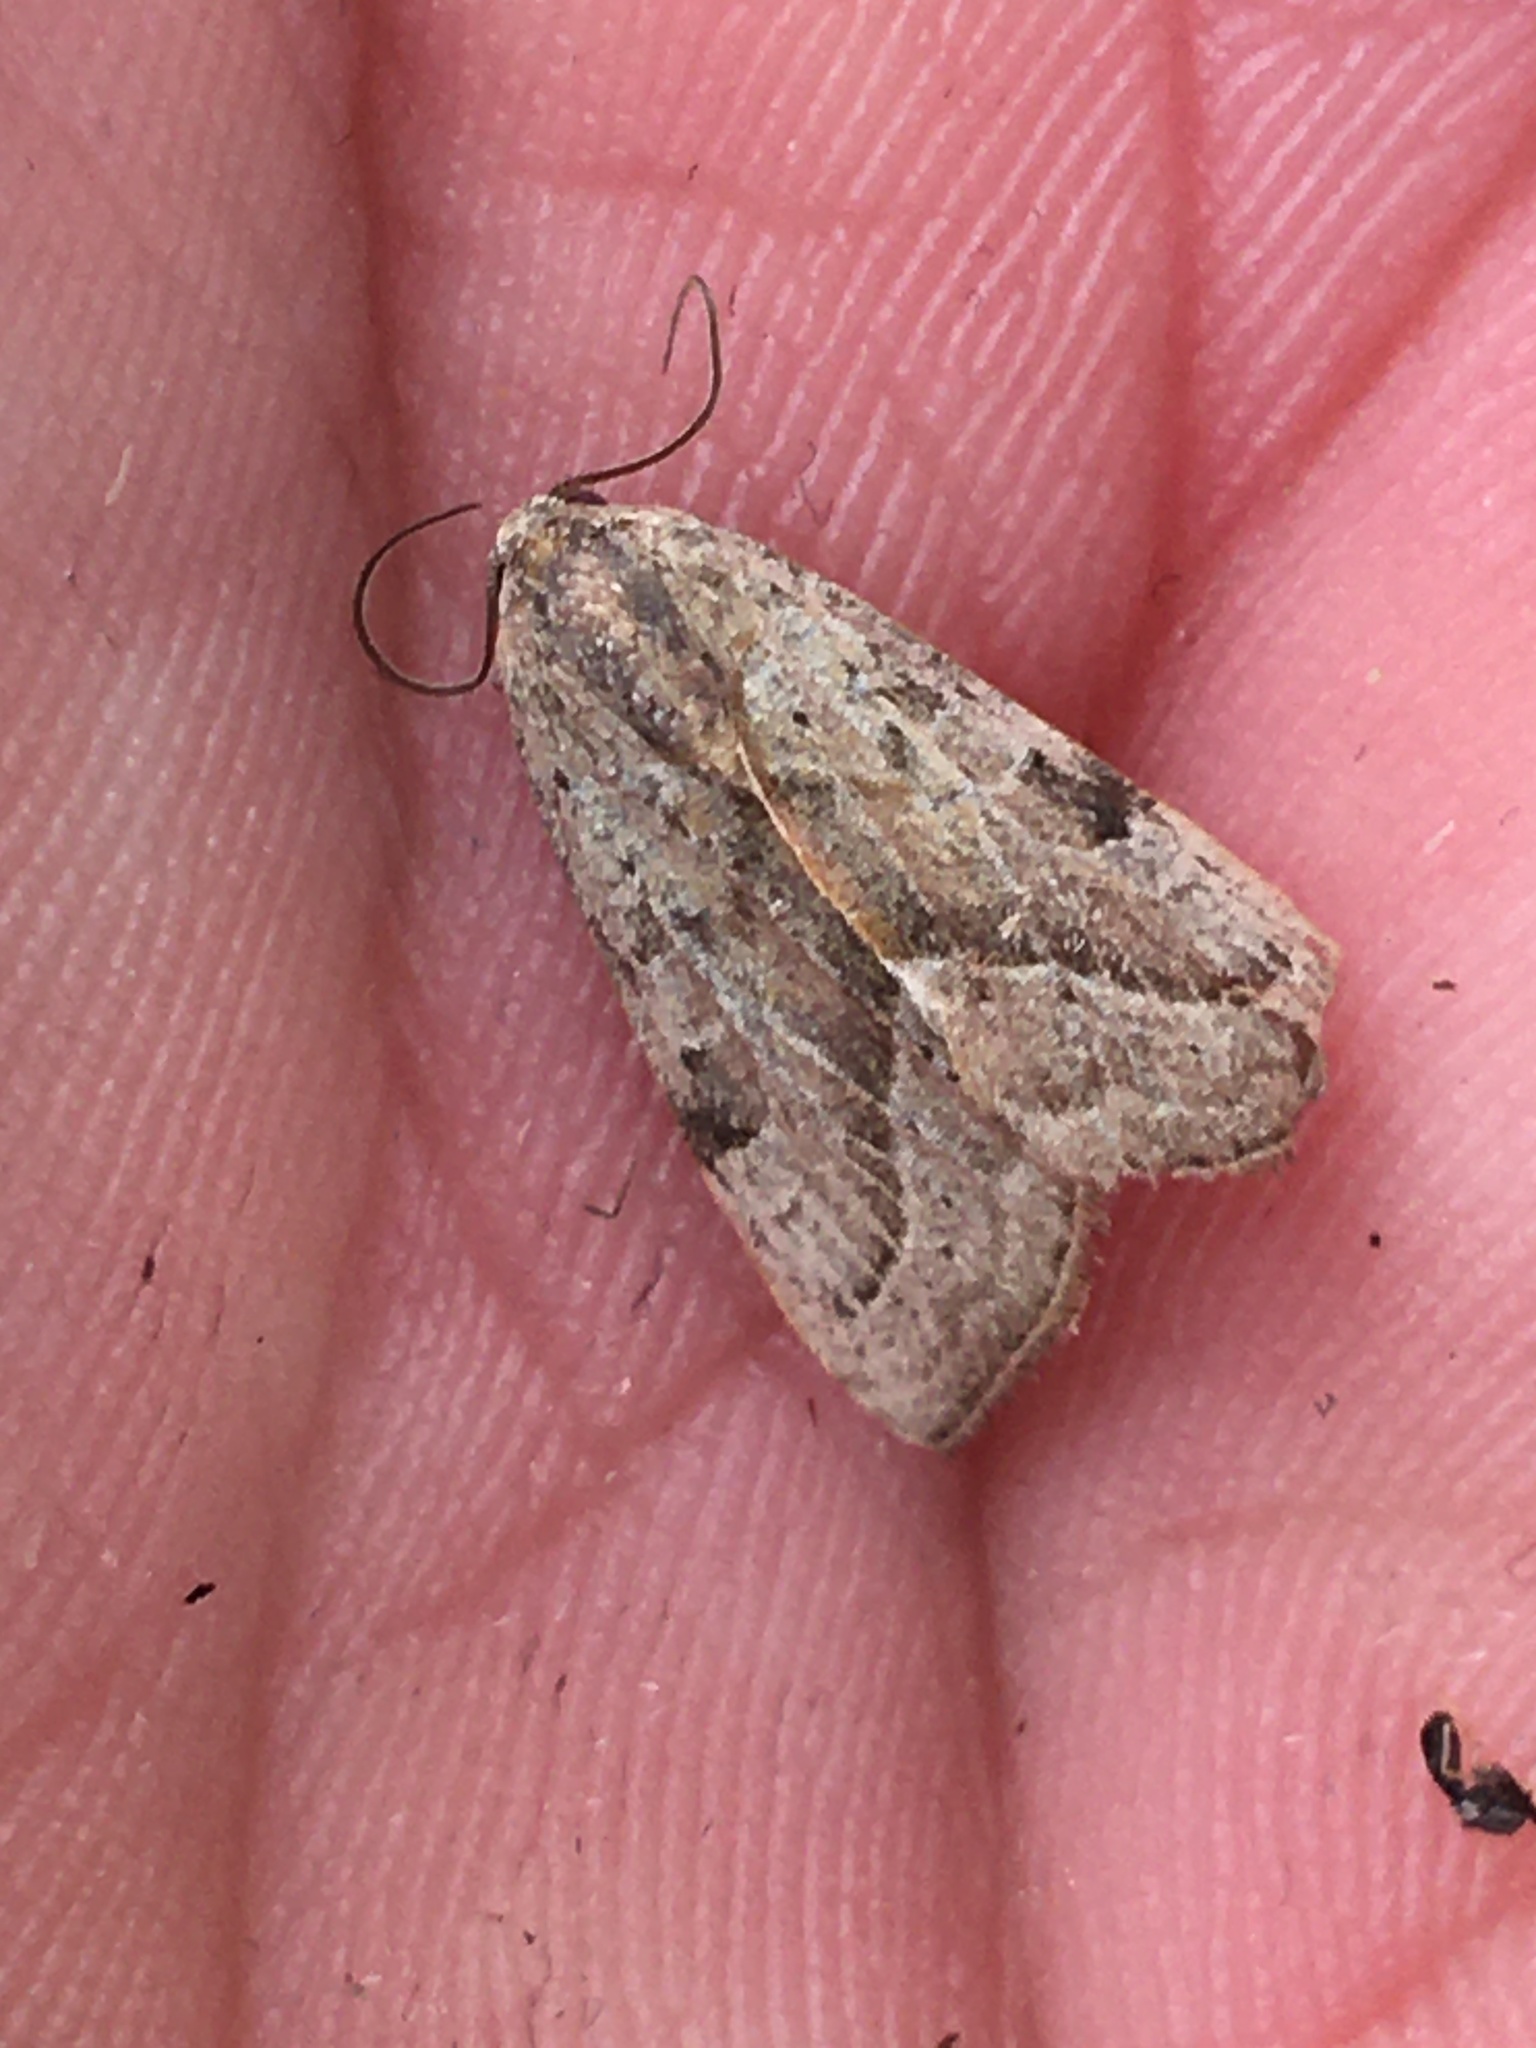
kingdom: Animalia
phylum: Arthropoda
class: Insecta
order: Lepidoptera
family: Noctuidae
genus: Galgula
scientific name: Galgula partita
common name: Wedgeling
